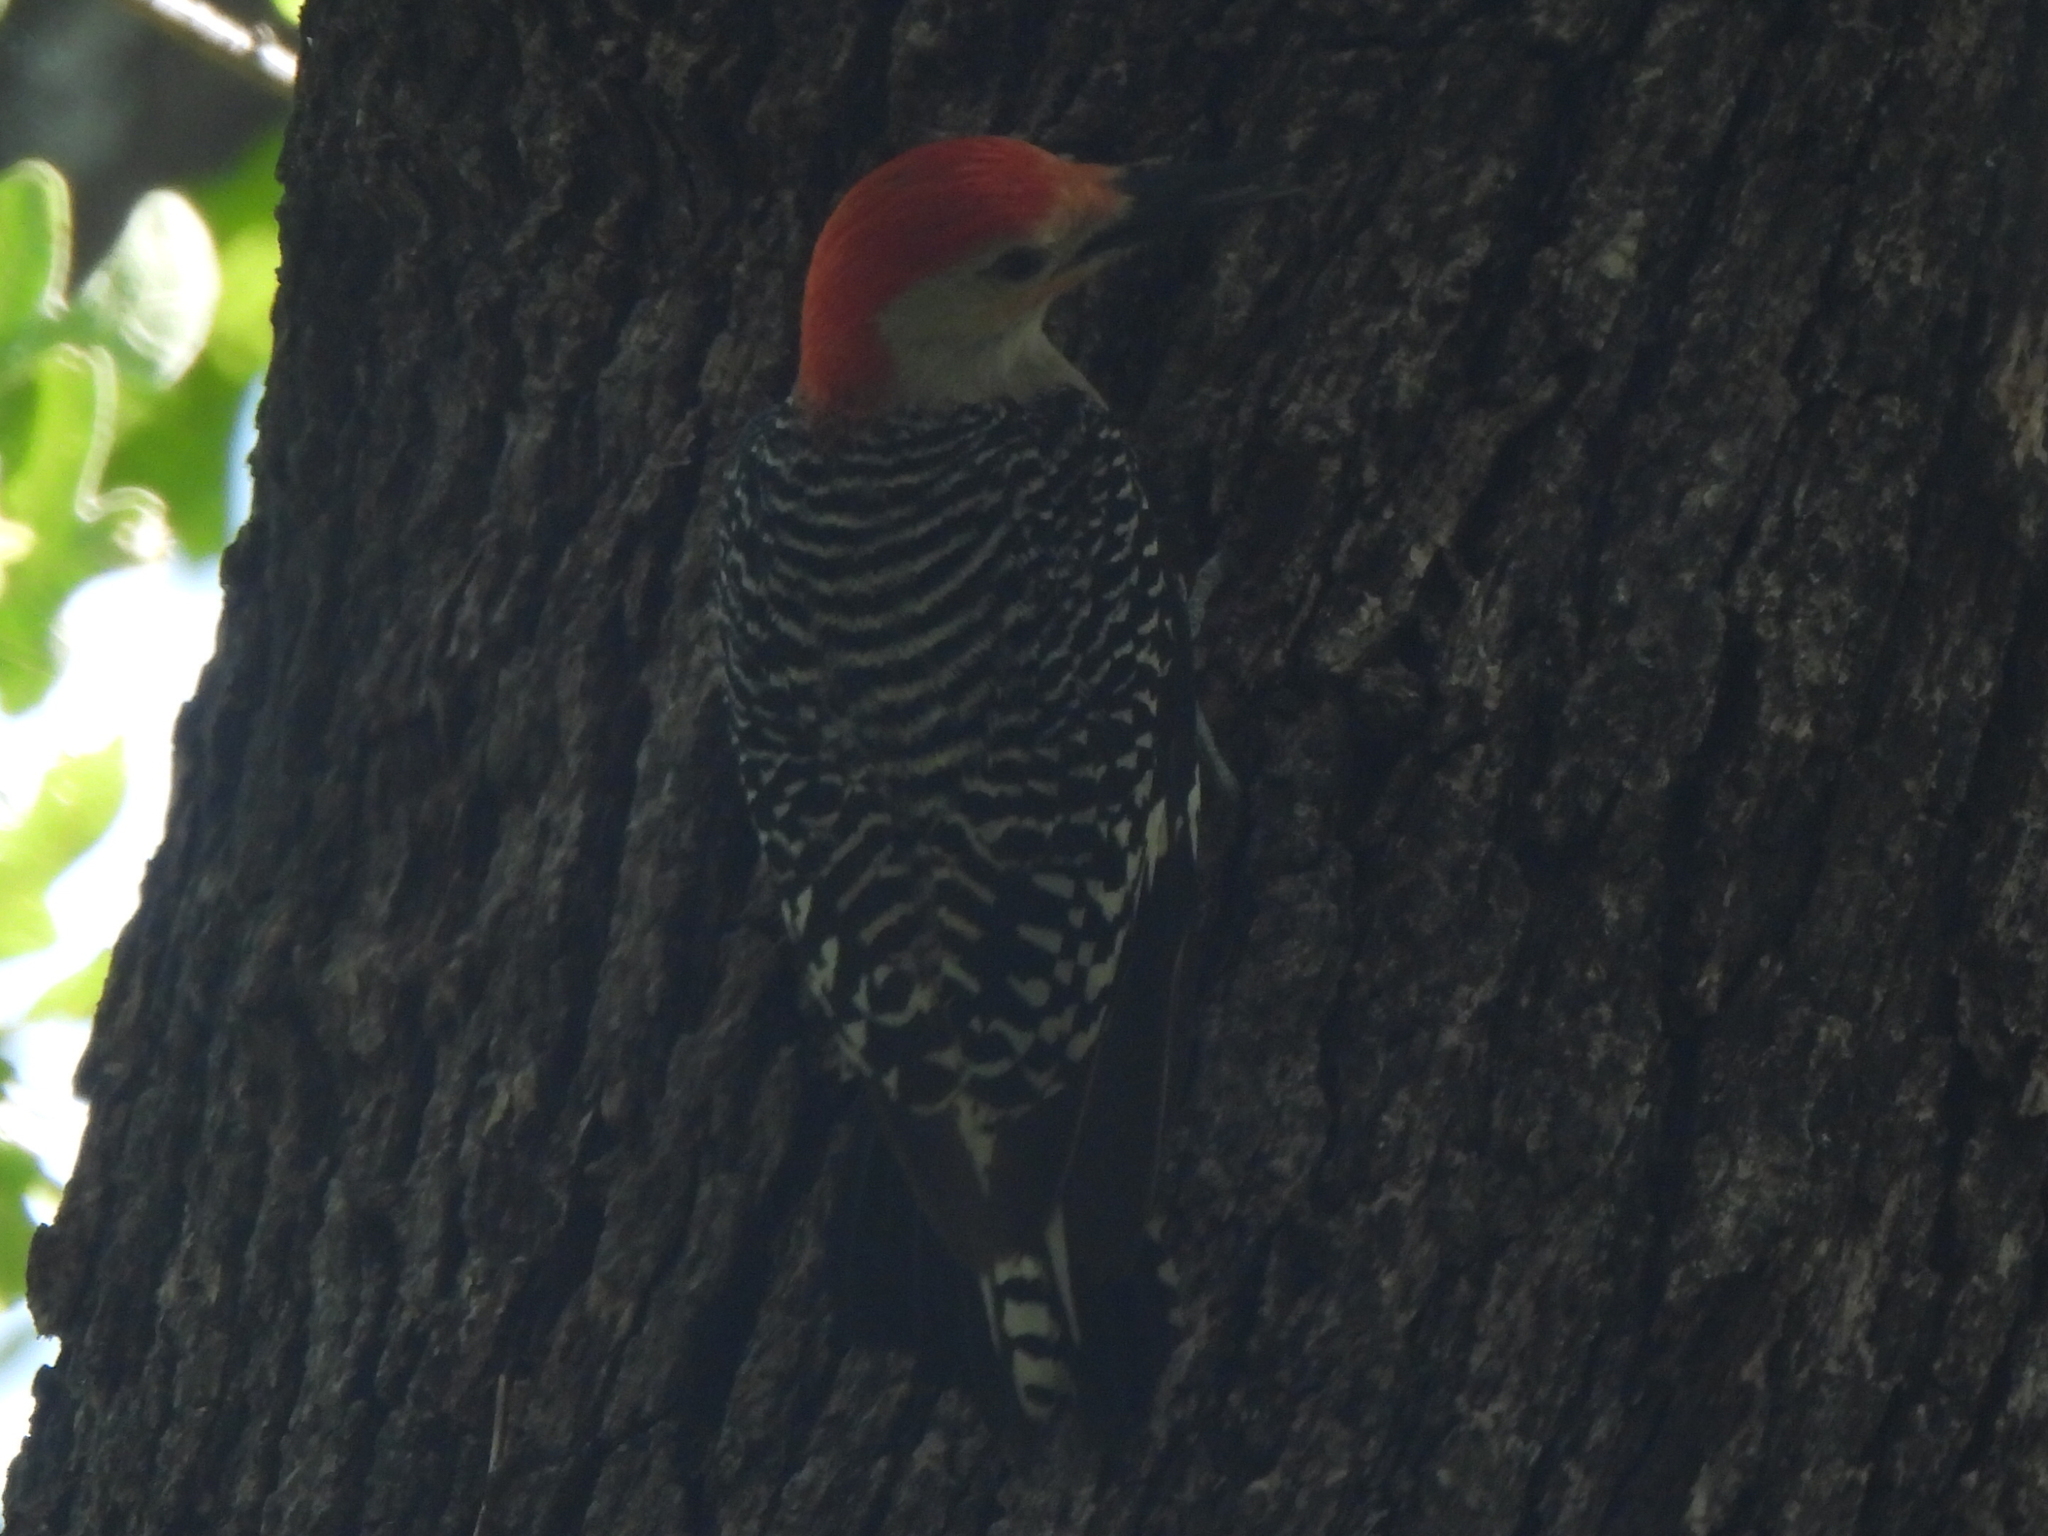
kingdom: Animalia
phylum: Chordata
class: Aves
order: Piciformes
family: Picidae
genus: Melanerpes
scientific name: Melanerpes carolinus
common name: Red-bellied woodpecker
